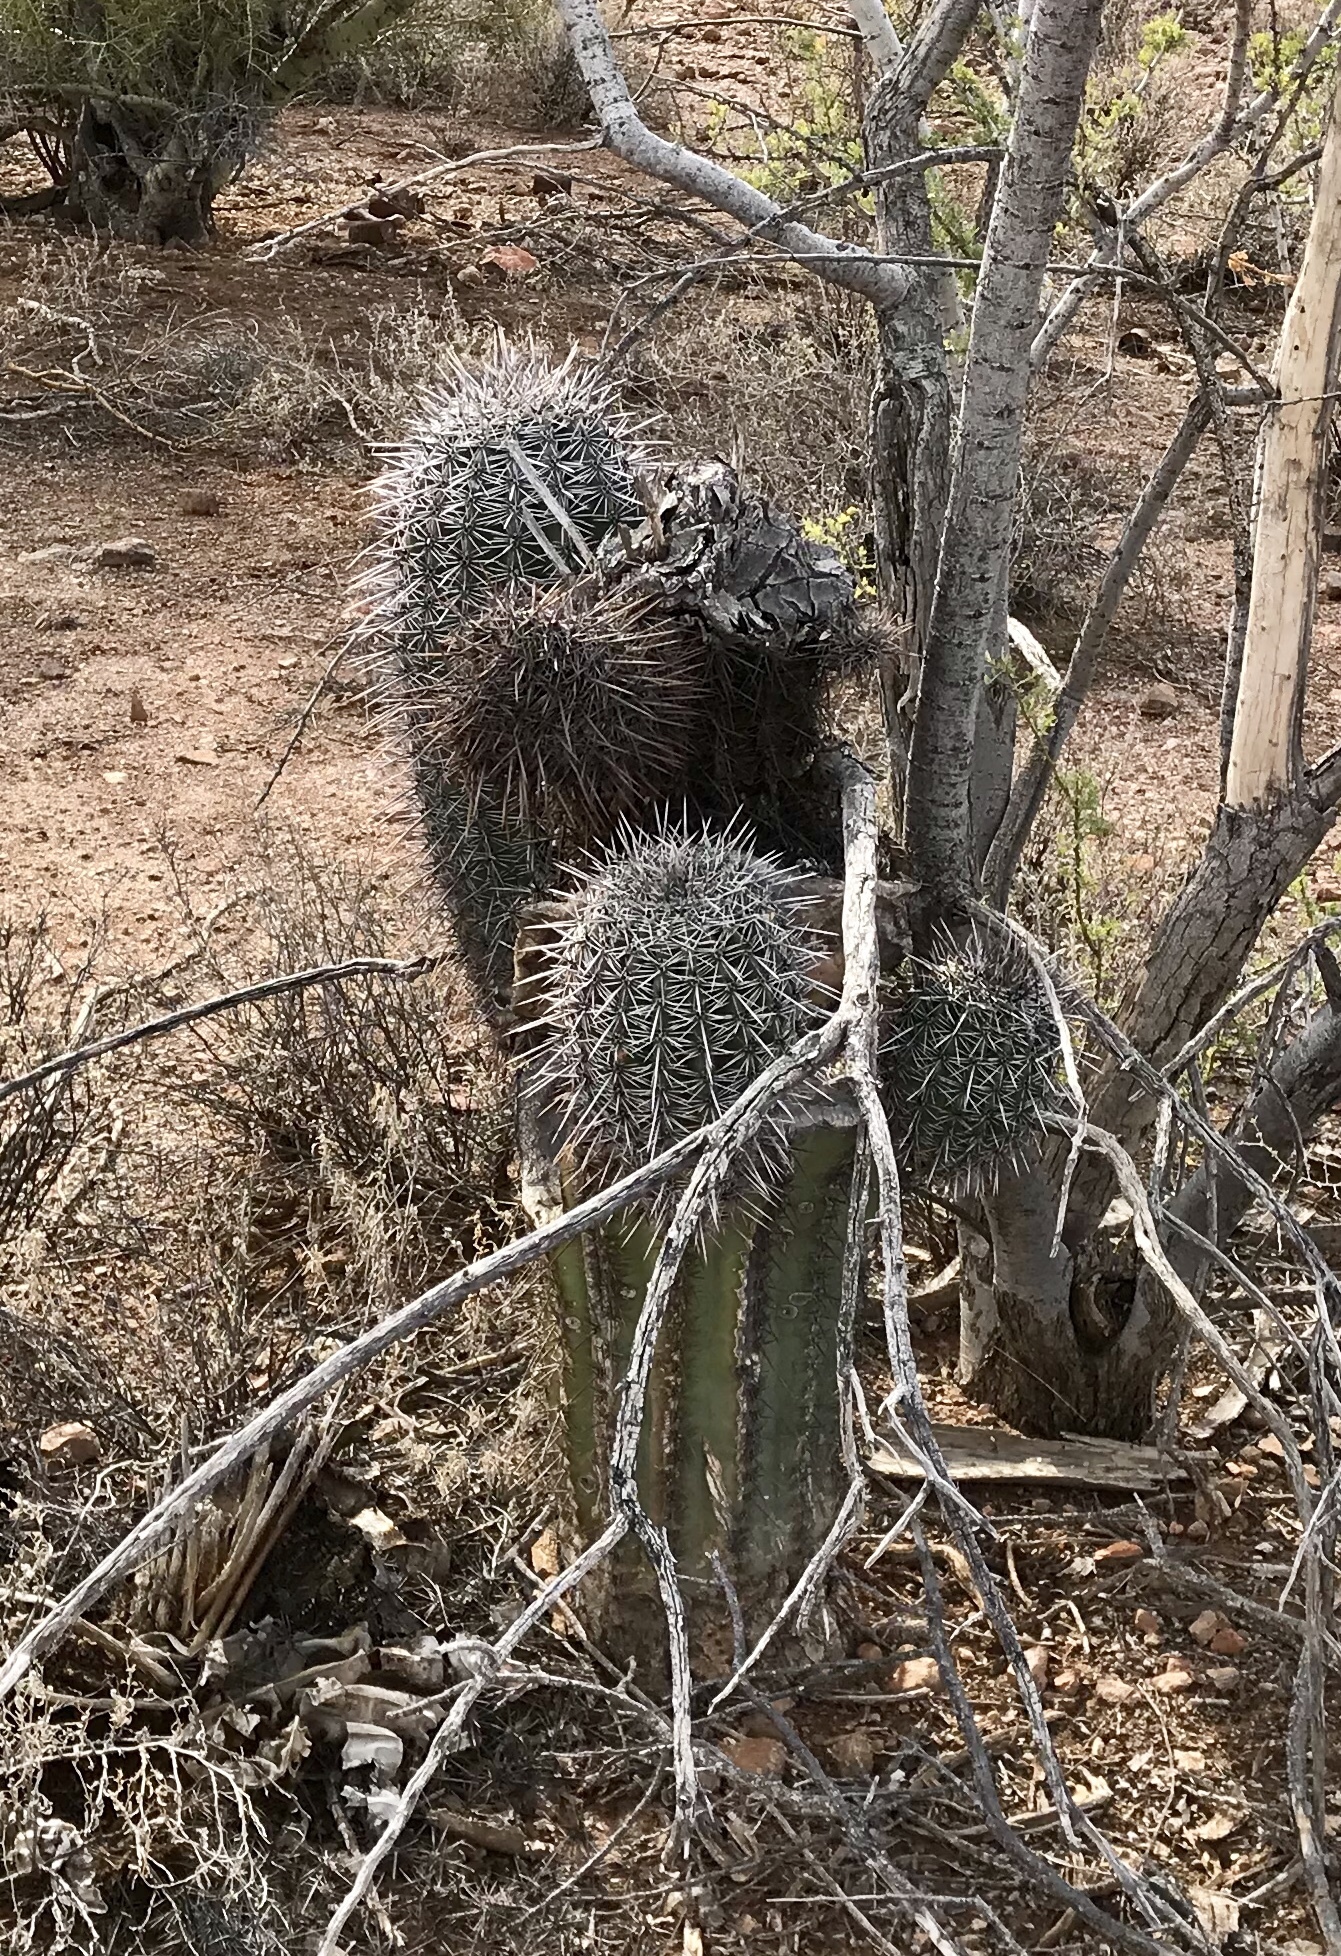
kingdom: Plantae
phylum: Tracheophyta
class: Magnoliopsida
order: Caryophyllales
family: Cactaceae
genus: Carnegiea
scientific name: Carnegiea gigantea
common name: Saguaro
